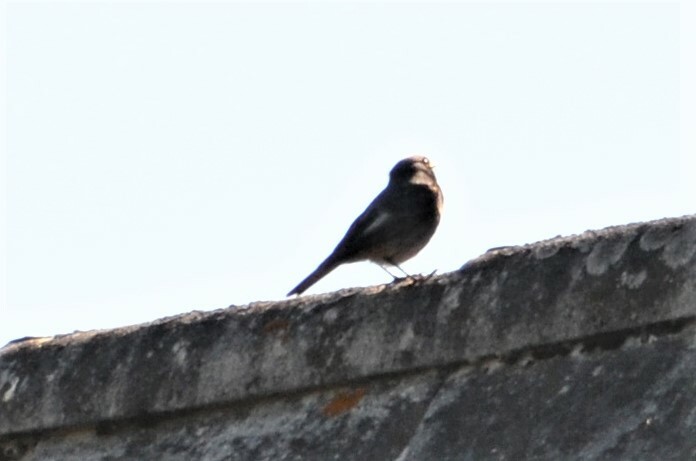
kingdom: Animalia
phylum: Chordata
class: Aves
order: Passeriformes
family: Muscicapidae
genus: Phoenicurus
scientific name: Phoenicurus ochruros
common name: Black redstart
